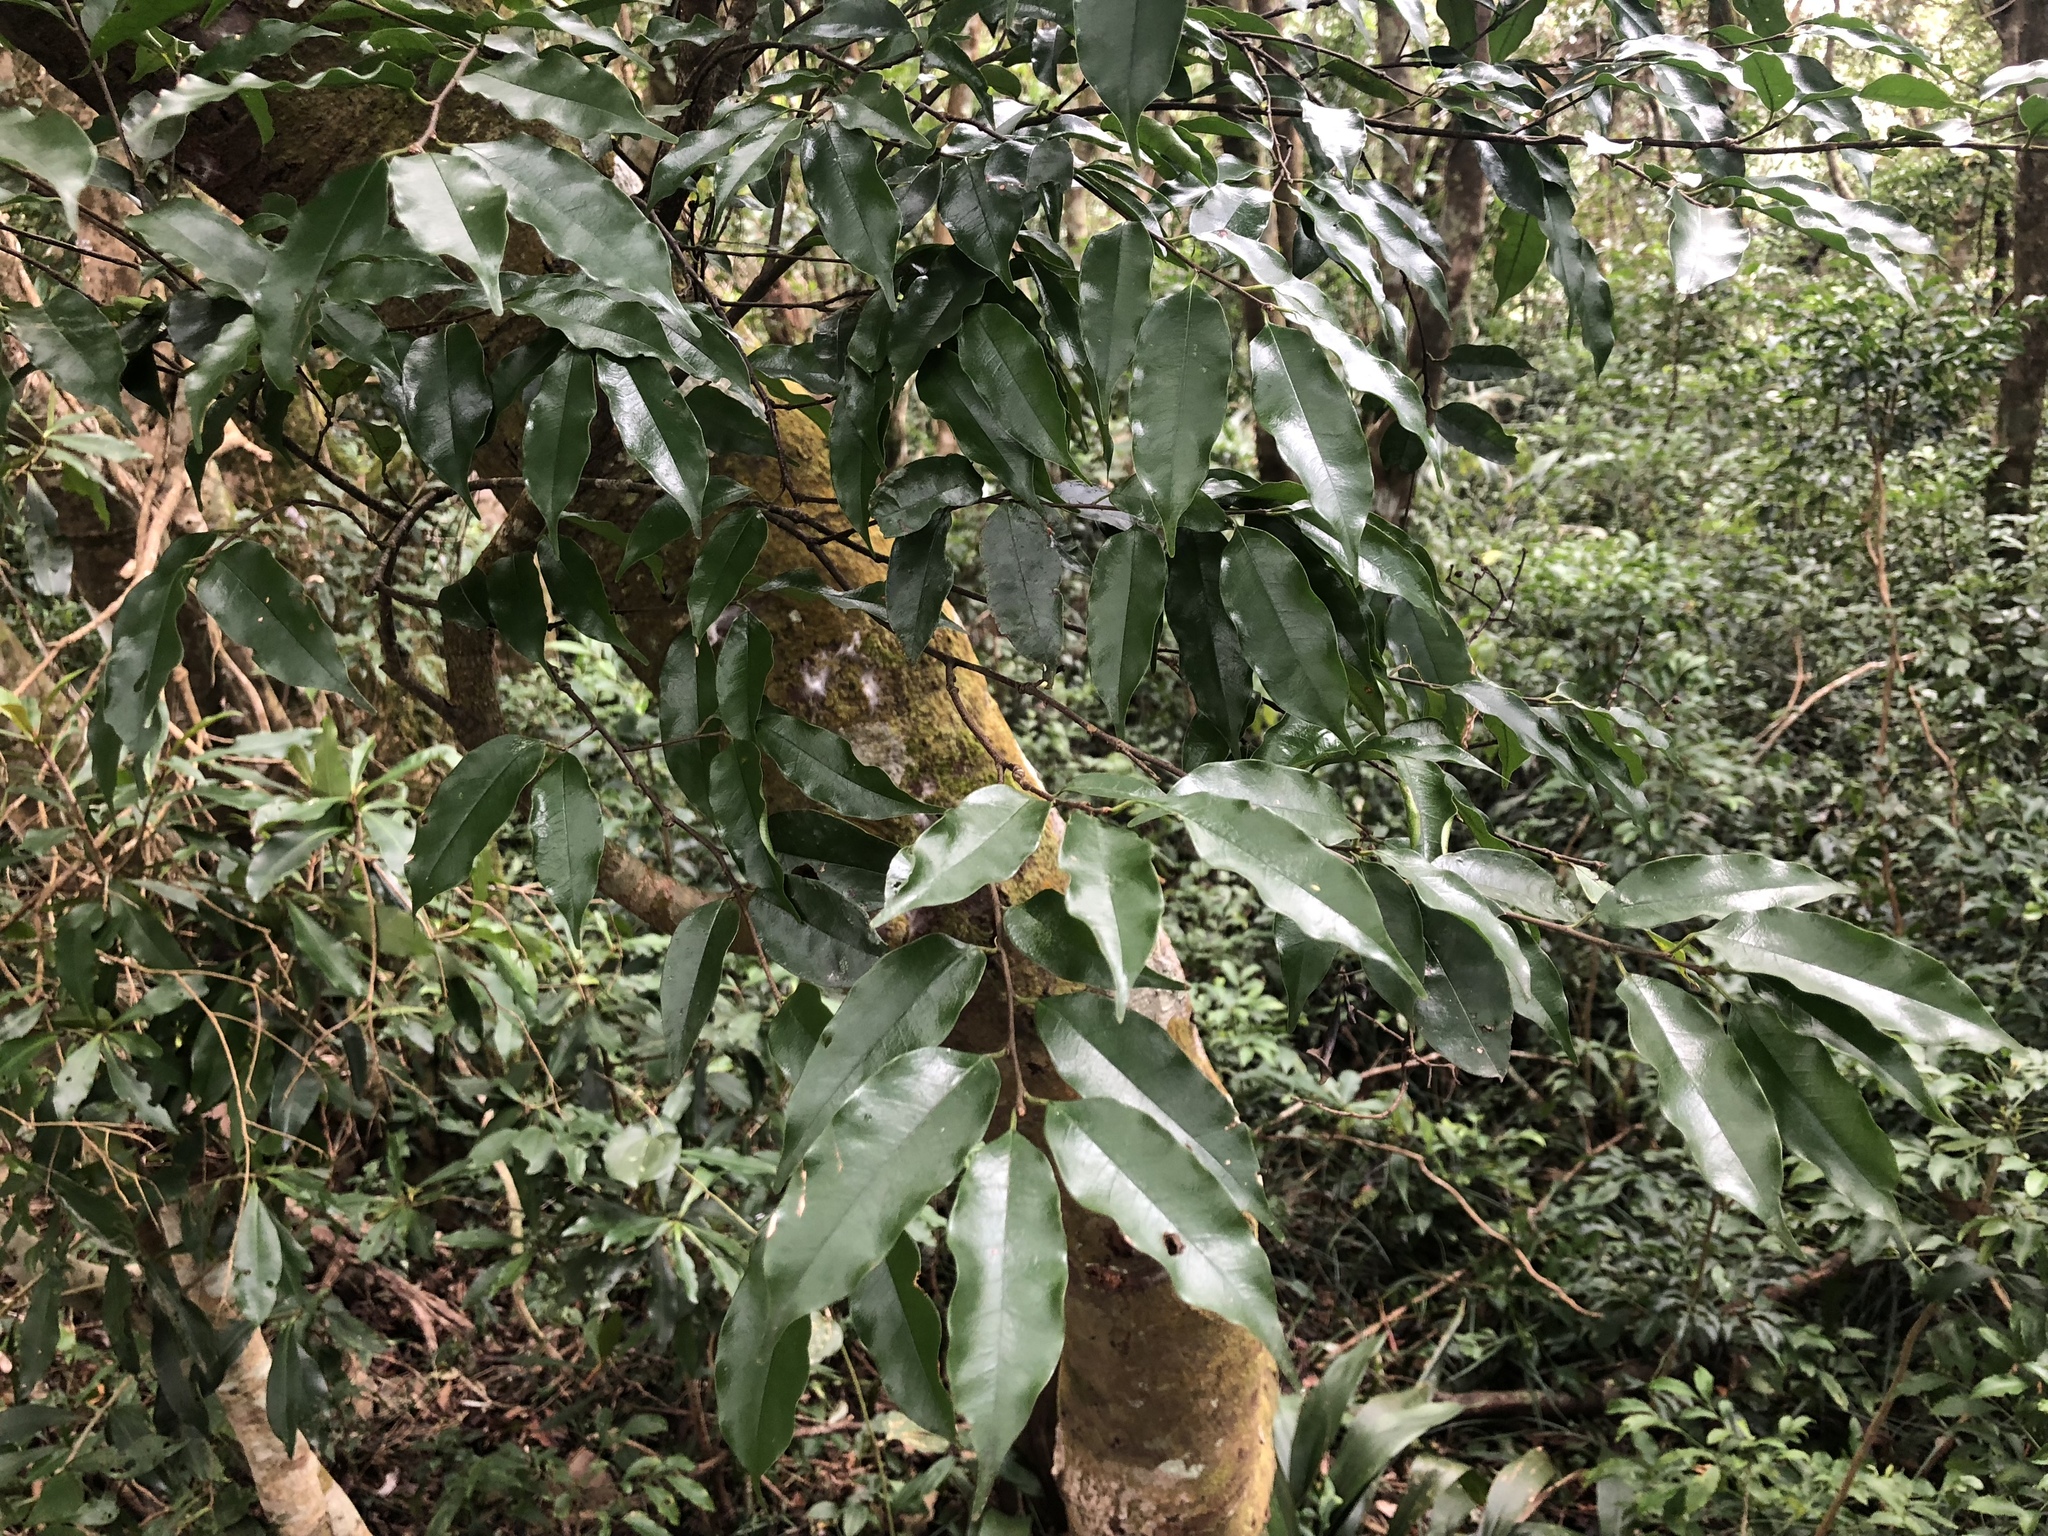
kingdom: Plantae
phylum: Tracheophyta
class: Magnoliopsida
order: Rosales
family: Rosaceae
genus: Prunus
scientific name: Prunus phaeosticta
